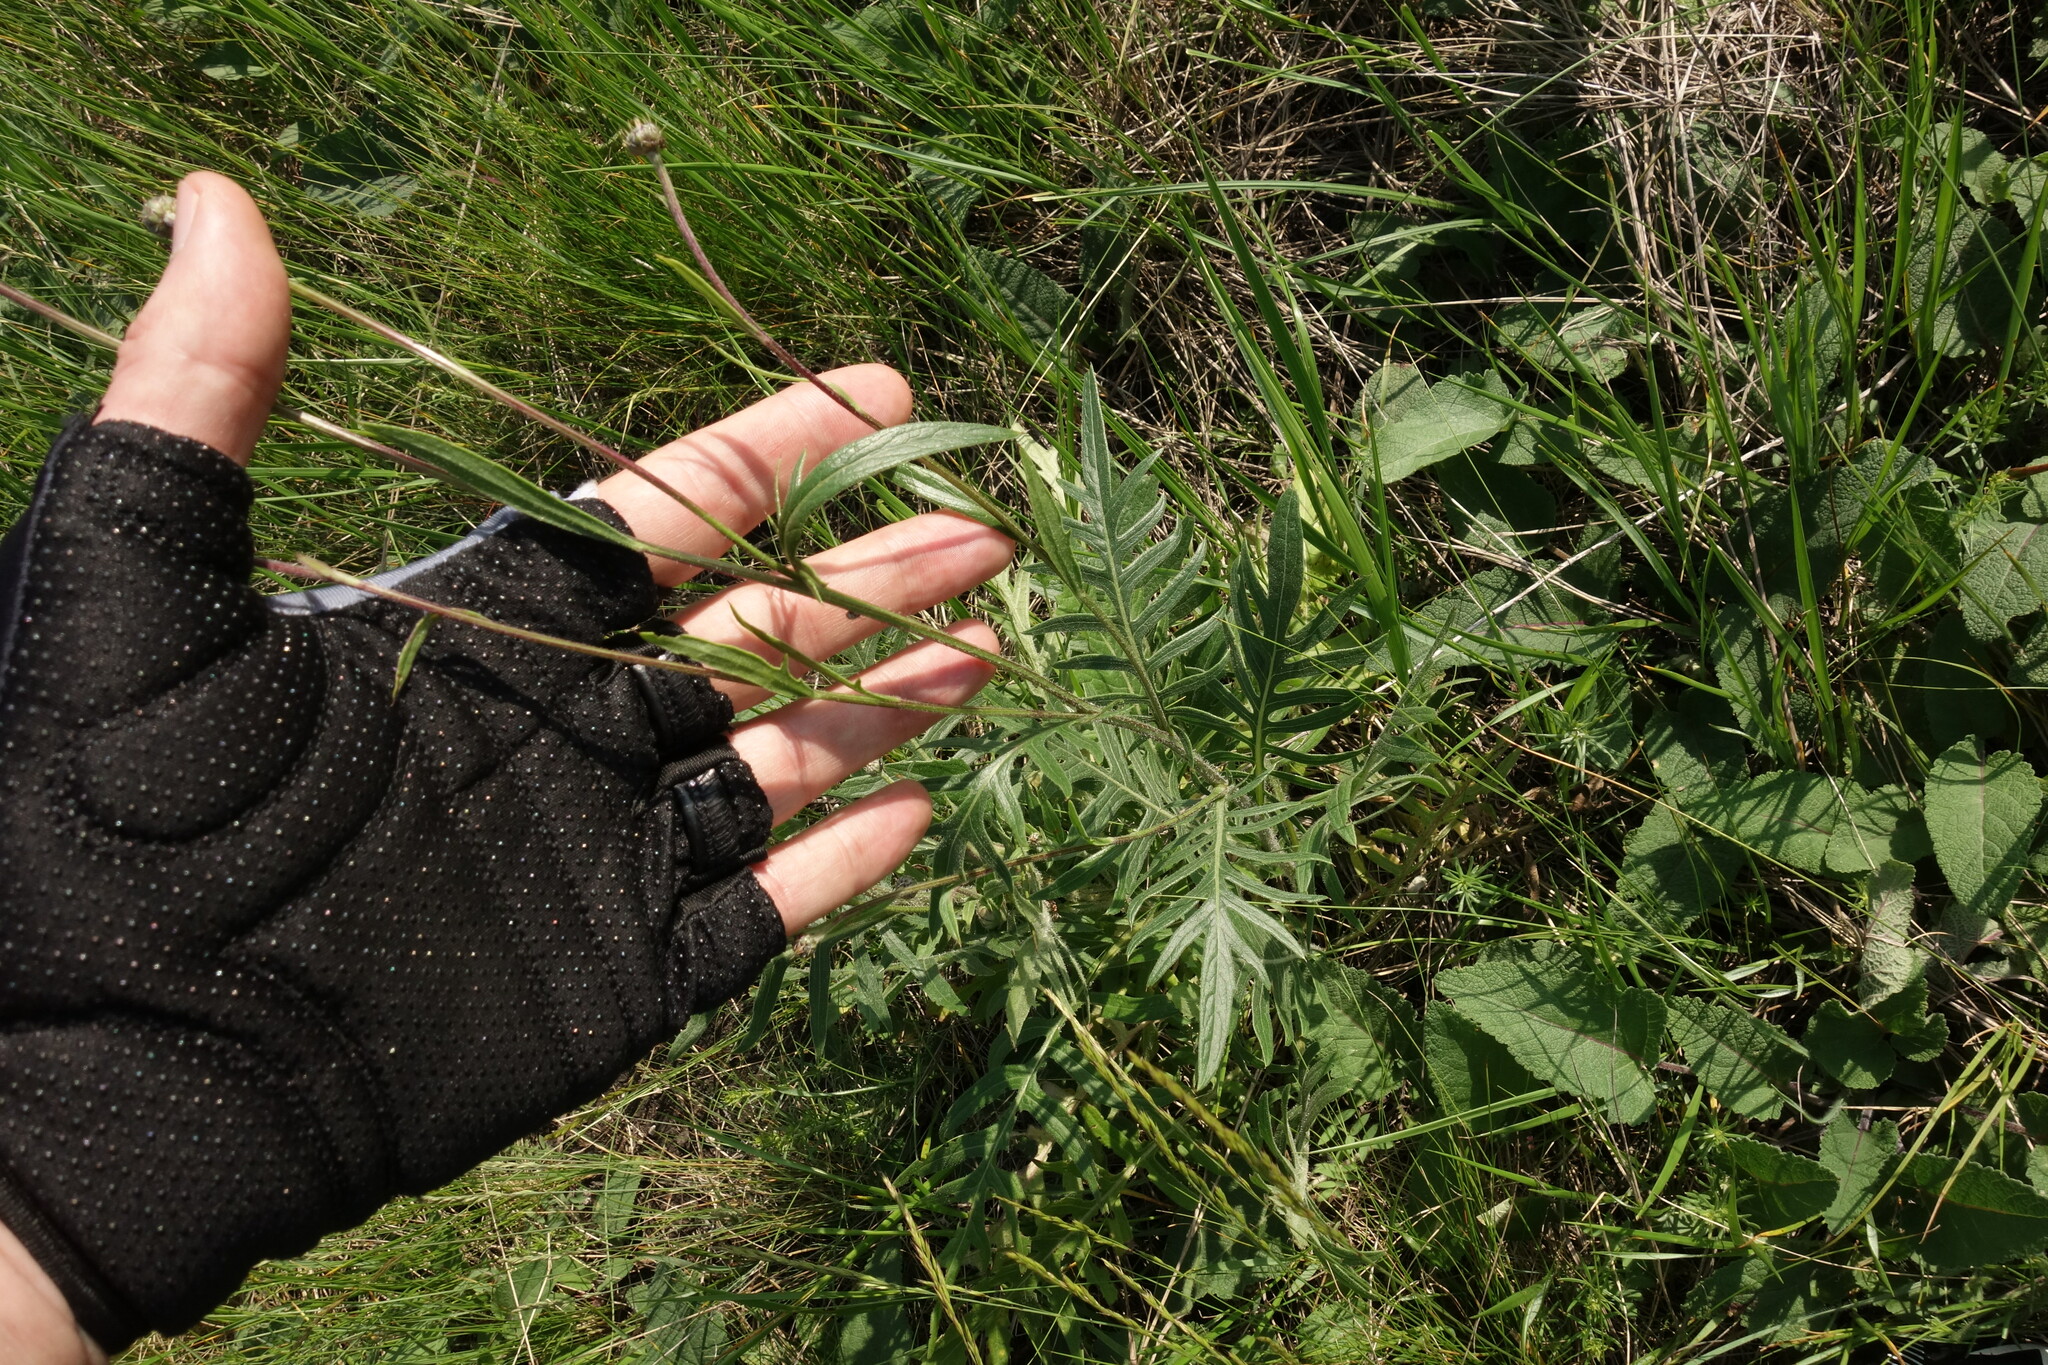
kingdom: Plantae
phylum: Tracheophyta
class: Magnoliopsida
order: Asterales
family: Asteraceae
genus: Klasea
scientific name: Klasea radiata
